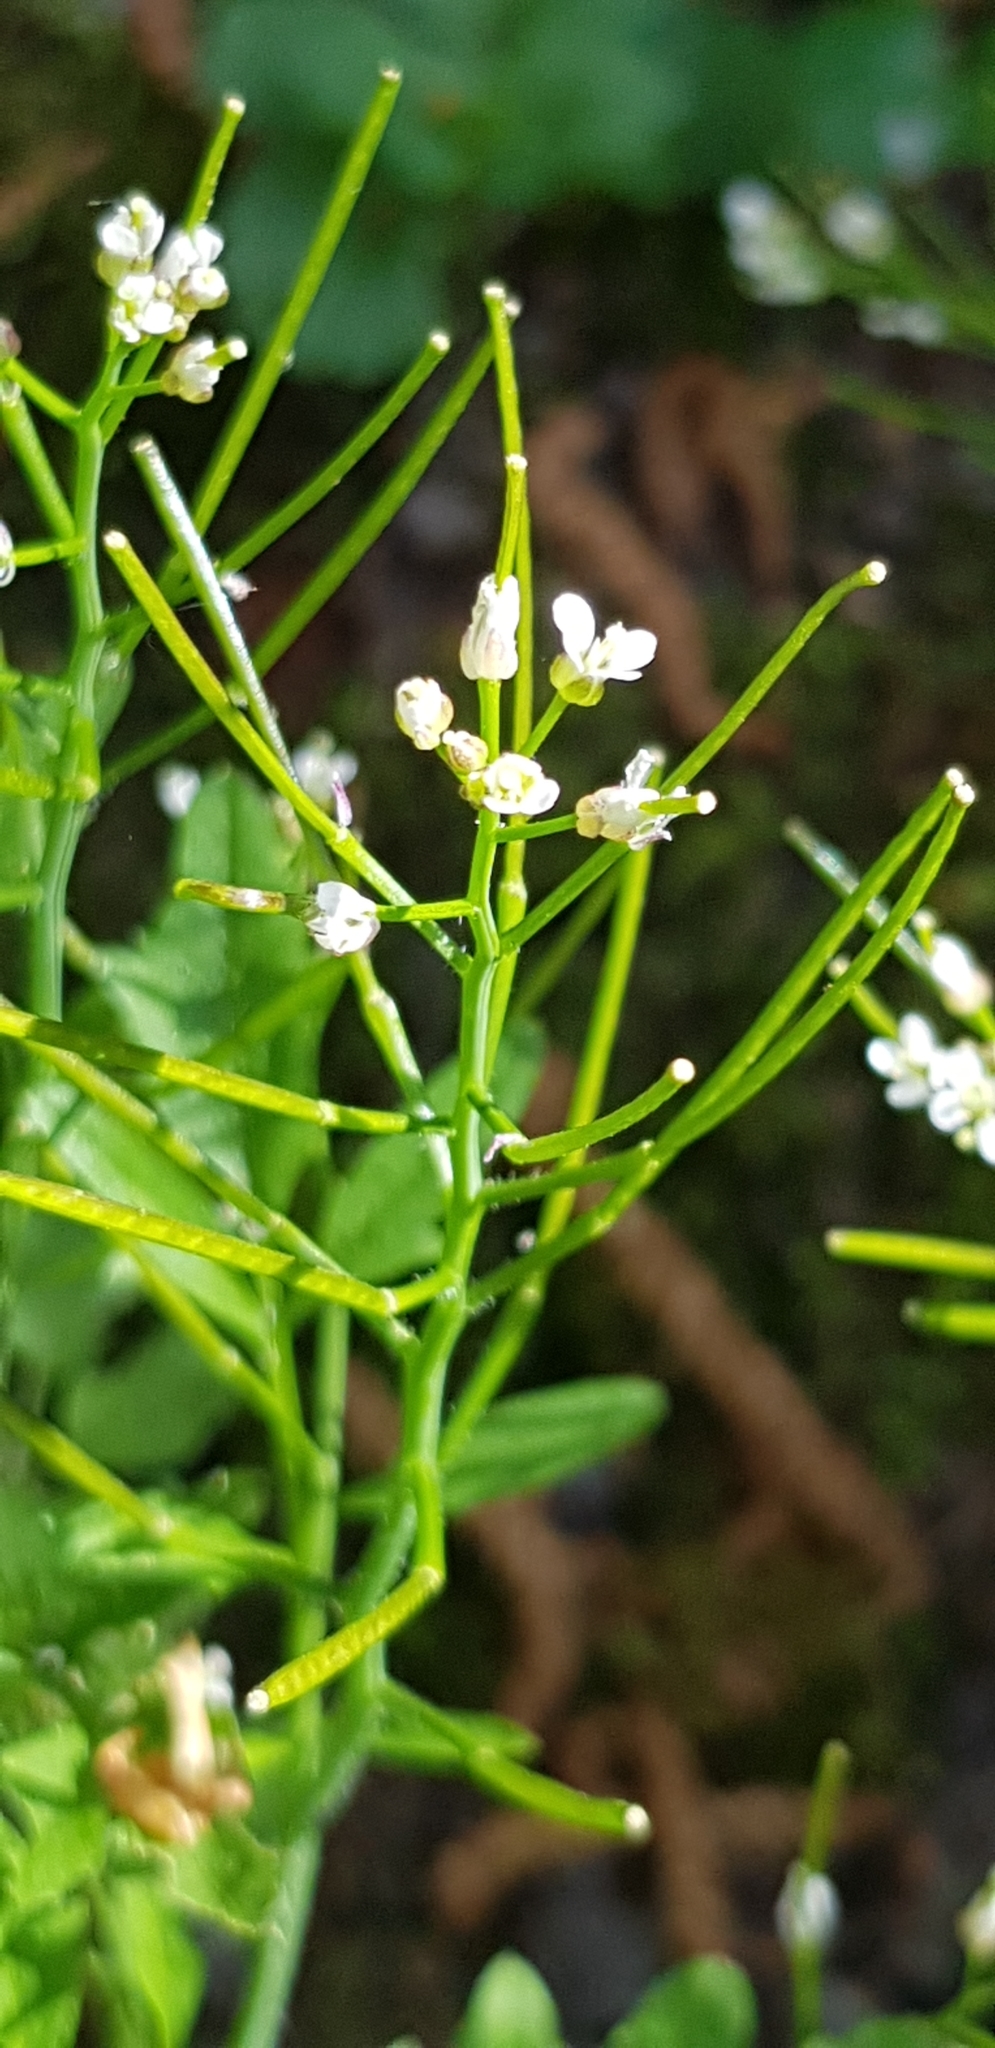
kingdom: Plantae
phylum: Tracheophyta
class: Magnoliopsida
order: Brassicales
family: Brassicaceae
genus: Cardamine
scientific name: Cardamine flexuosa
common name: Woodland bittercress
